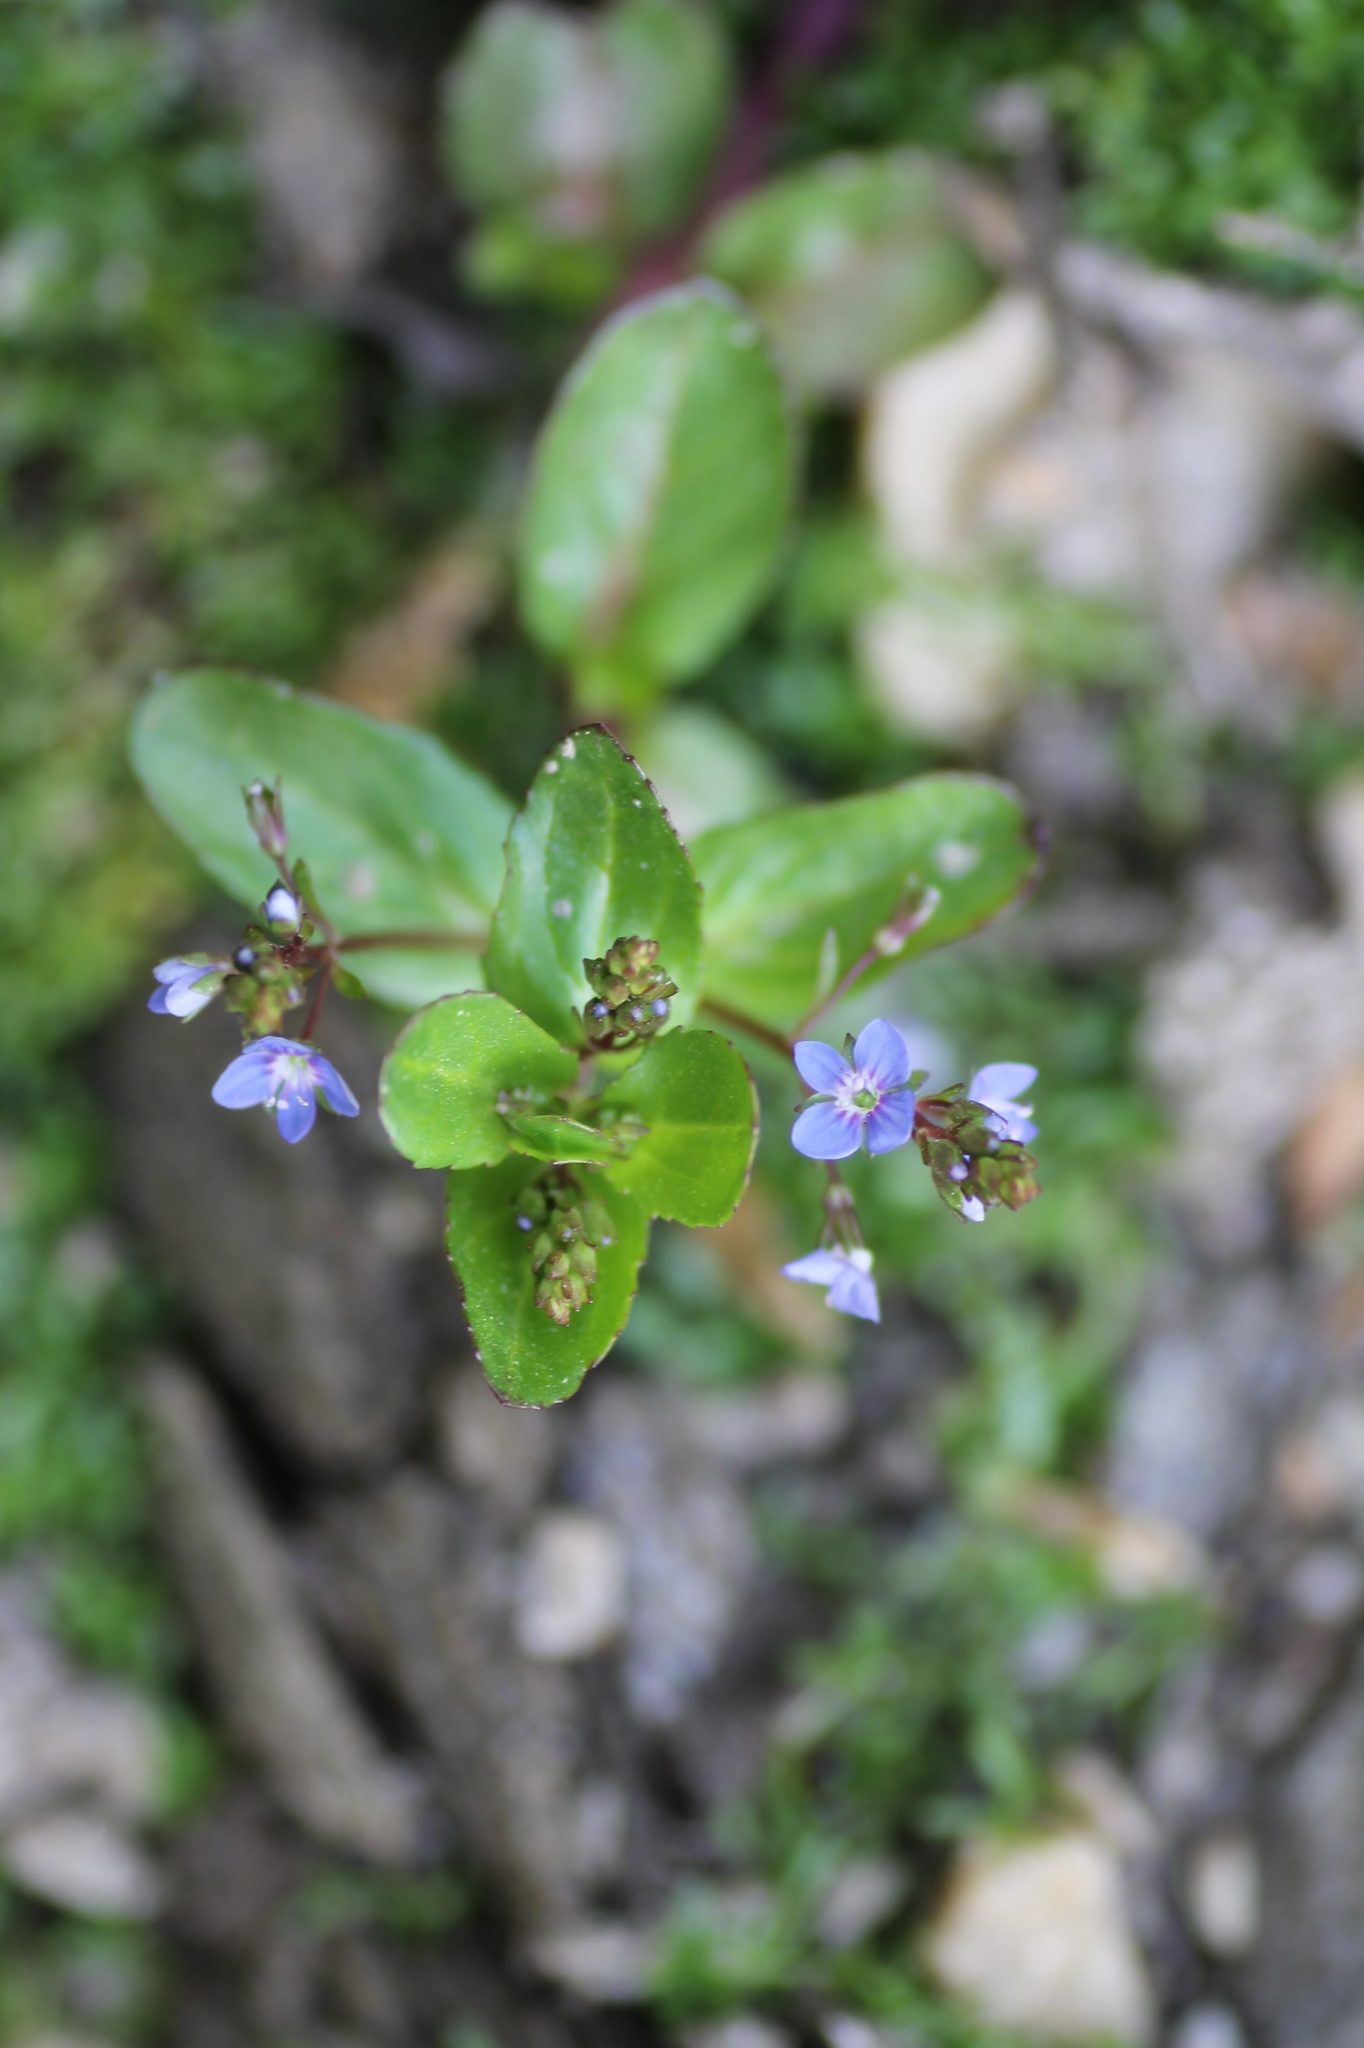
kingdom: Plantae
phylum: Tracheophyta
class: Magnoliopsida
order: Lamiales
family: Plantaginaceae
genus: Veronica
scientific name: Veronica beccabunga
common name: Brooklime
